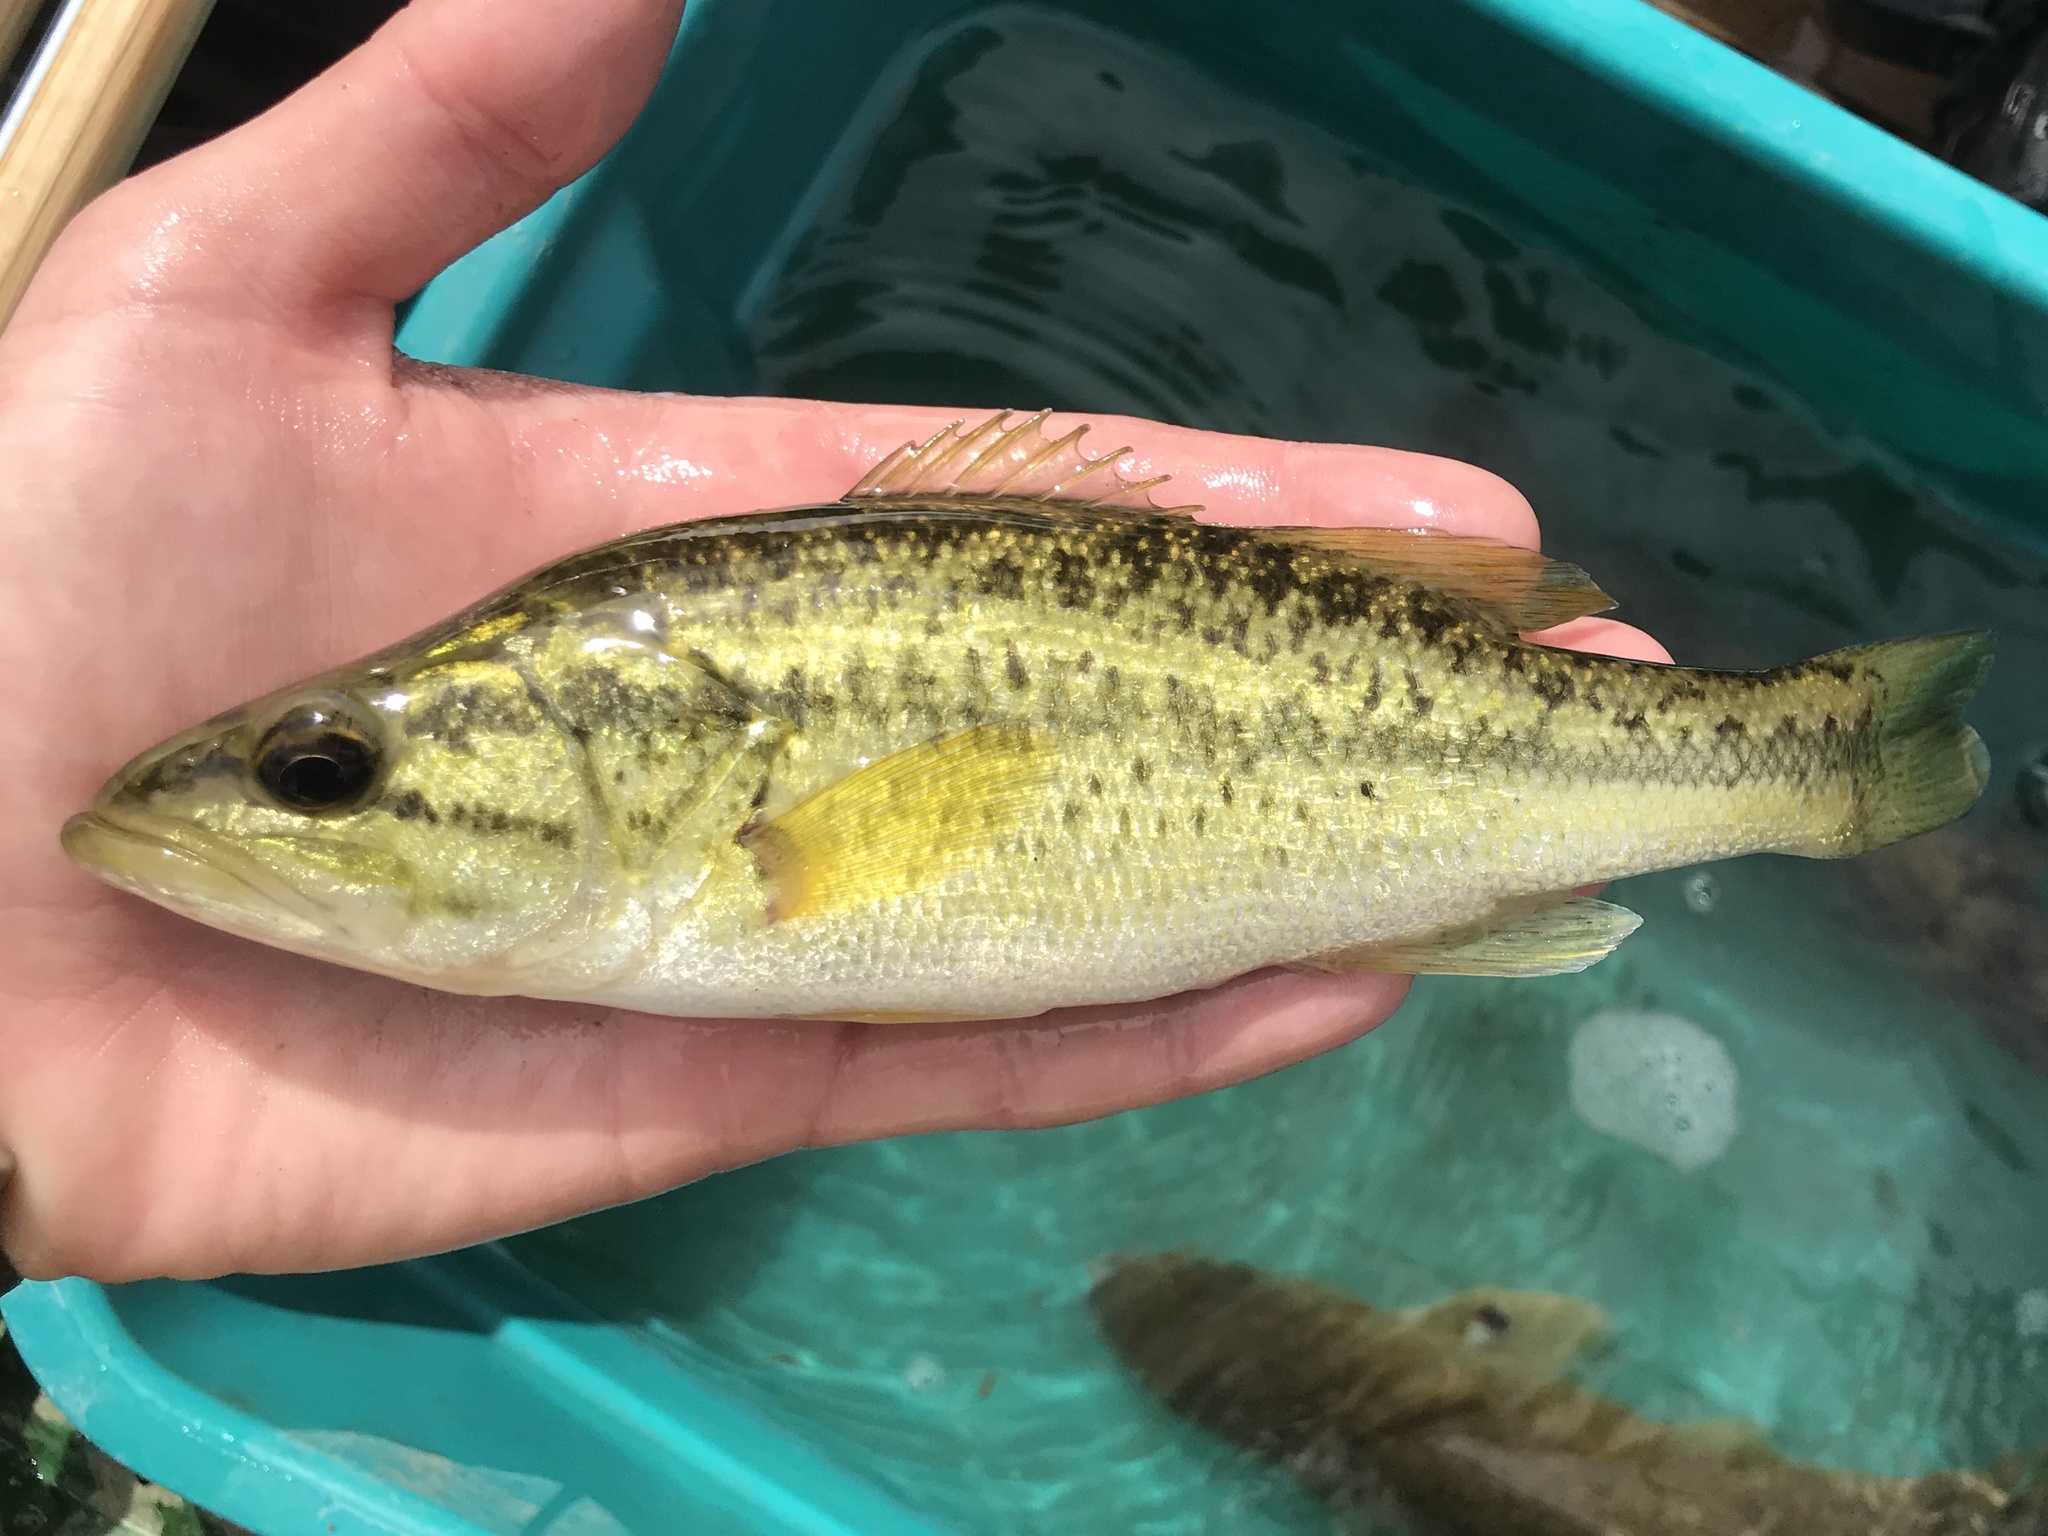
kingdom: Animalia
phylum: Chordata
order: Perciformes
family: Centrarchidae
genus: Micropterus
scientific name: Micropterus
